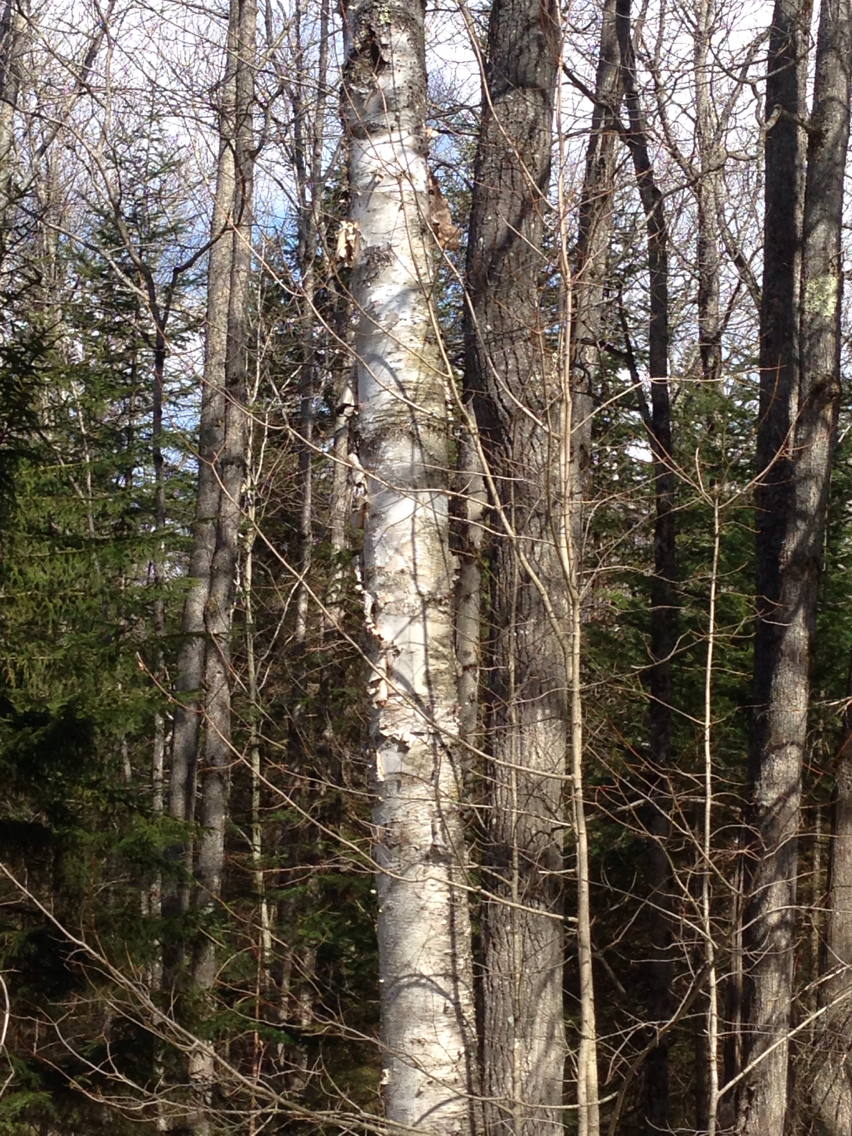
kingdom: Plantae
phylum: Tracheophyta
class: Magnoliopsida
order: Fagales
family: Betulaceae
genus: Betula
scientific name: Betula papyrifera
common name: Paper birch
